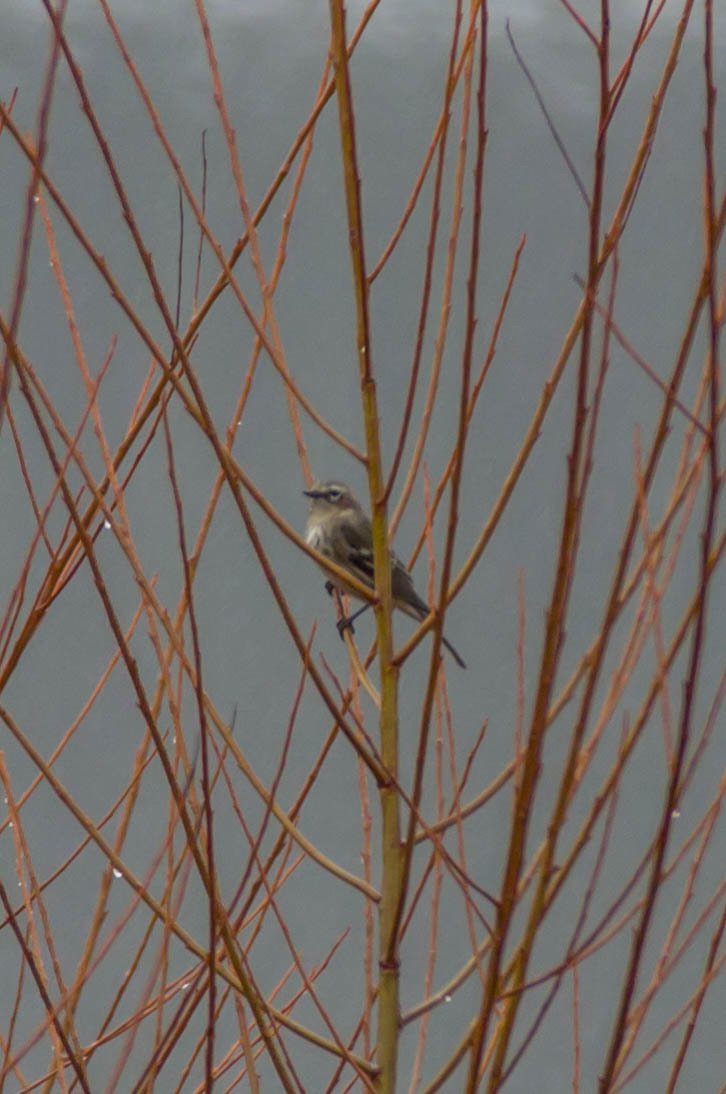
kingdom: Animalia
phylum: Chordata
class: Aves
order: Passeriformes
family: Parulidae
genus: Setophaga
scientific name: Setophaga coronata
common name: Myrtle warbler
